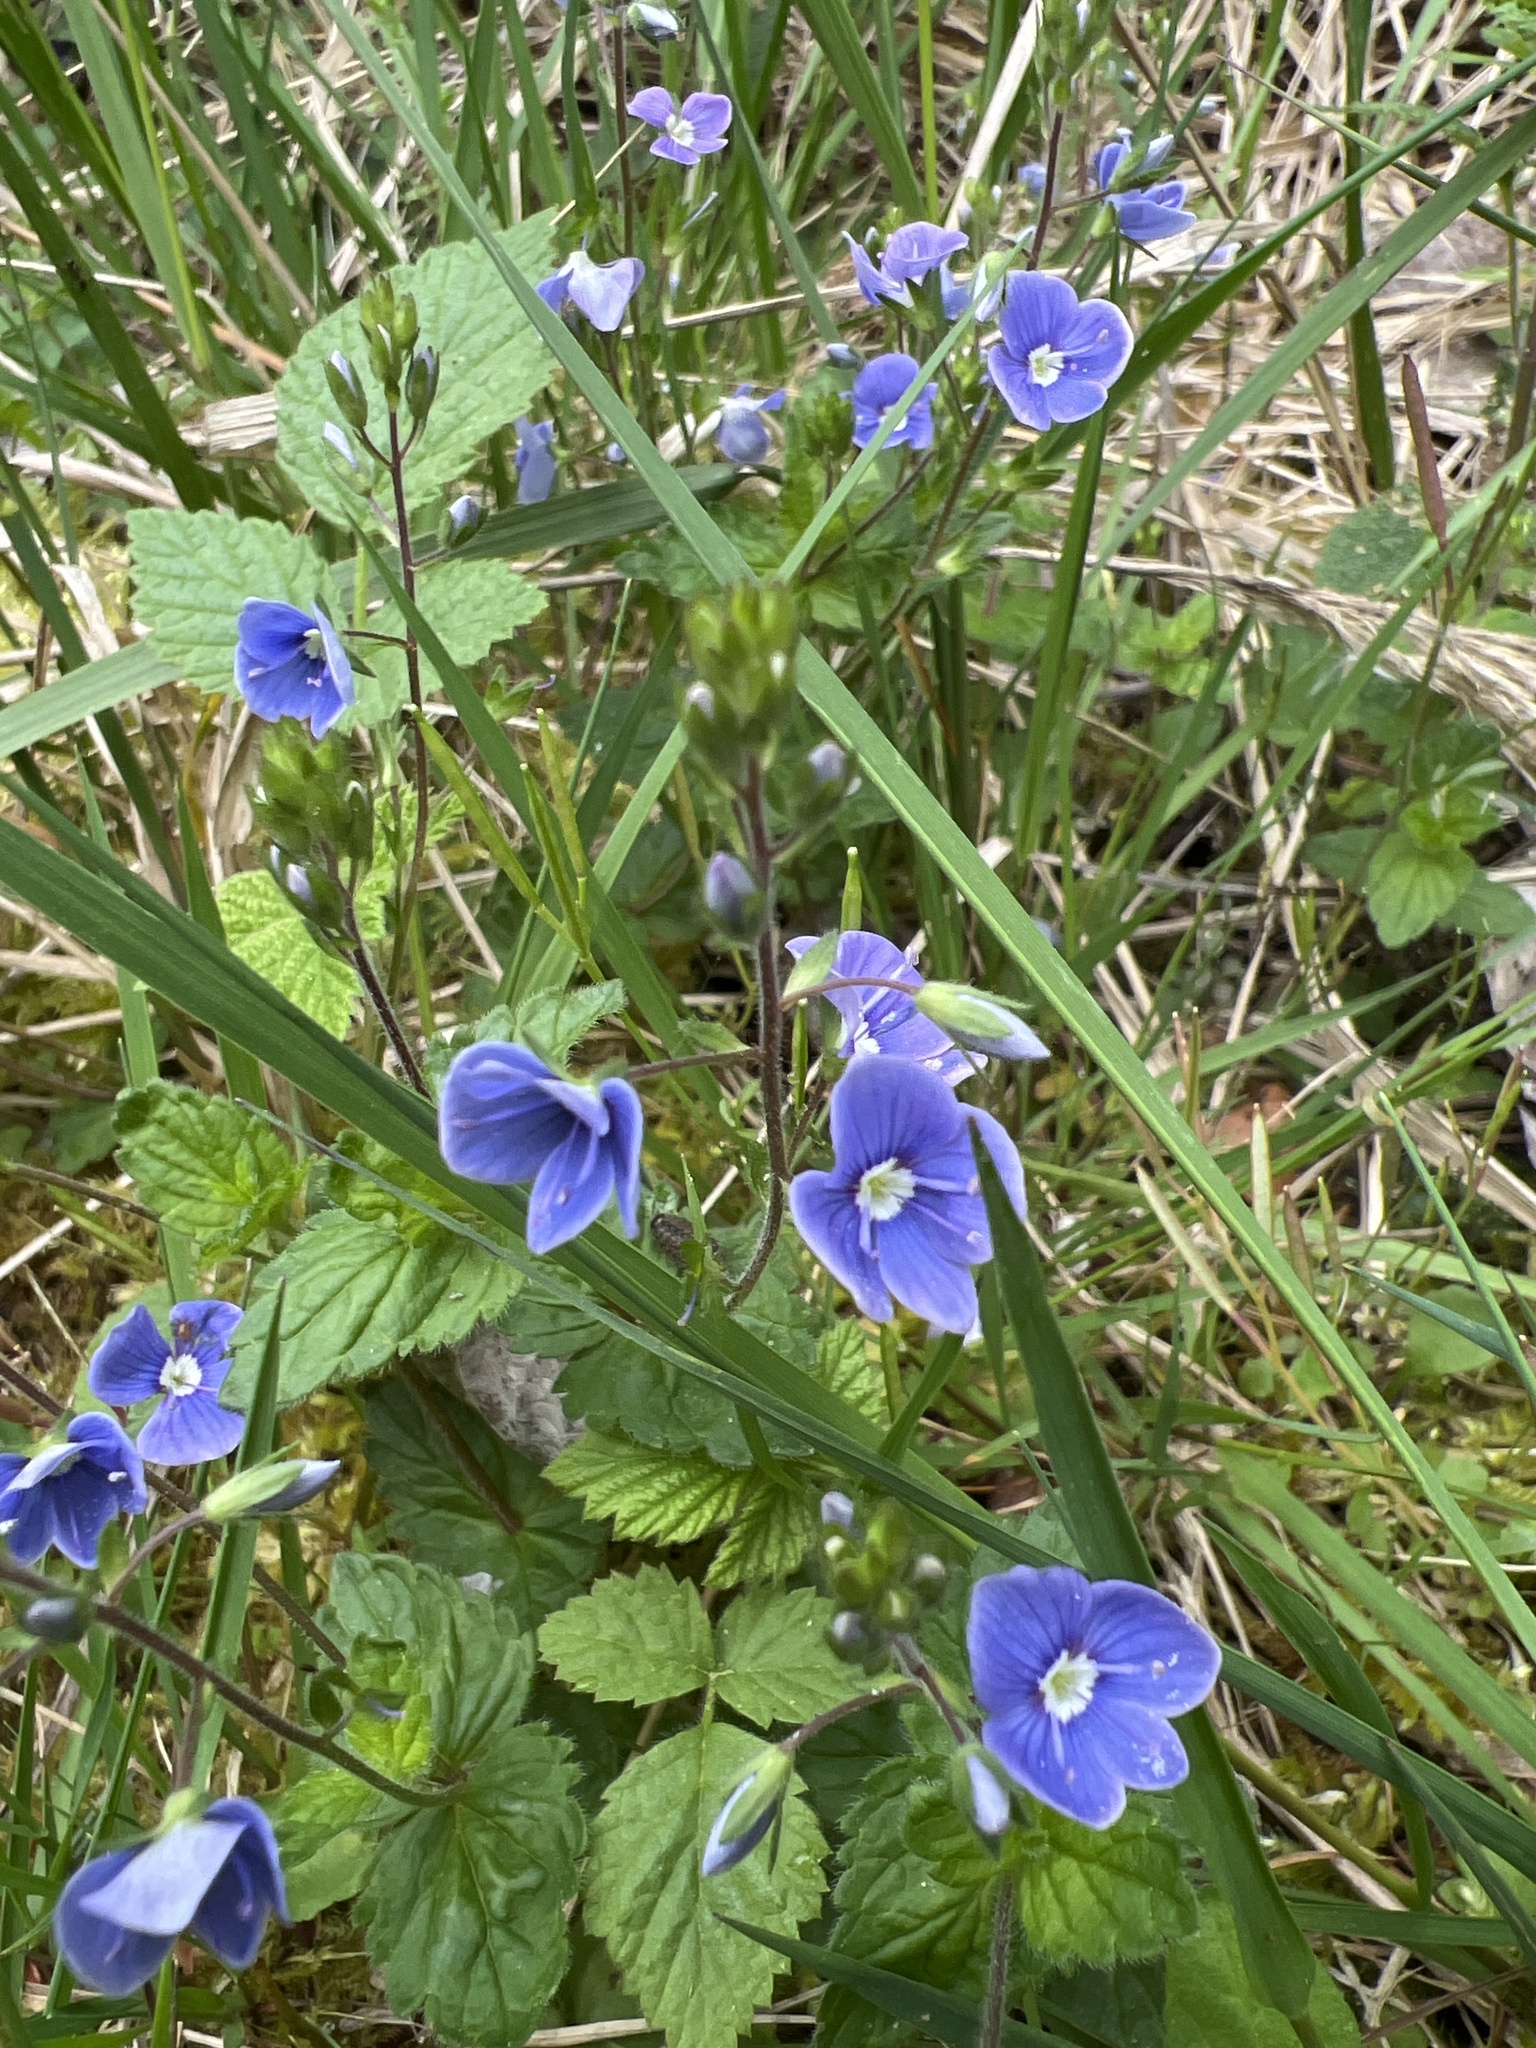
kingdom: Plantae
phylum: Tracheophyta
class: Magnoliopsida
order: Lamiales
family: Plantaginaceae
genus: Veronica
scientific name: Veronica chamaedrys
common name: Germander speedwell
